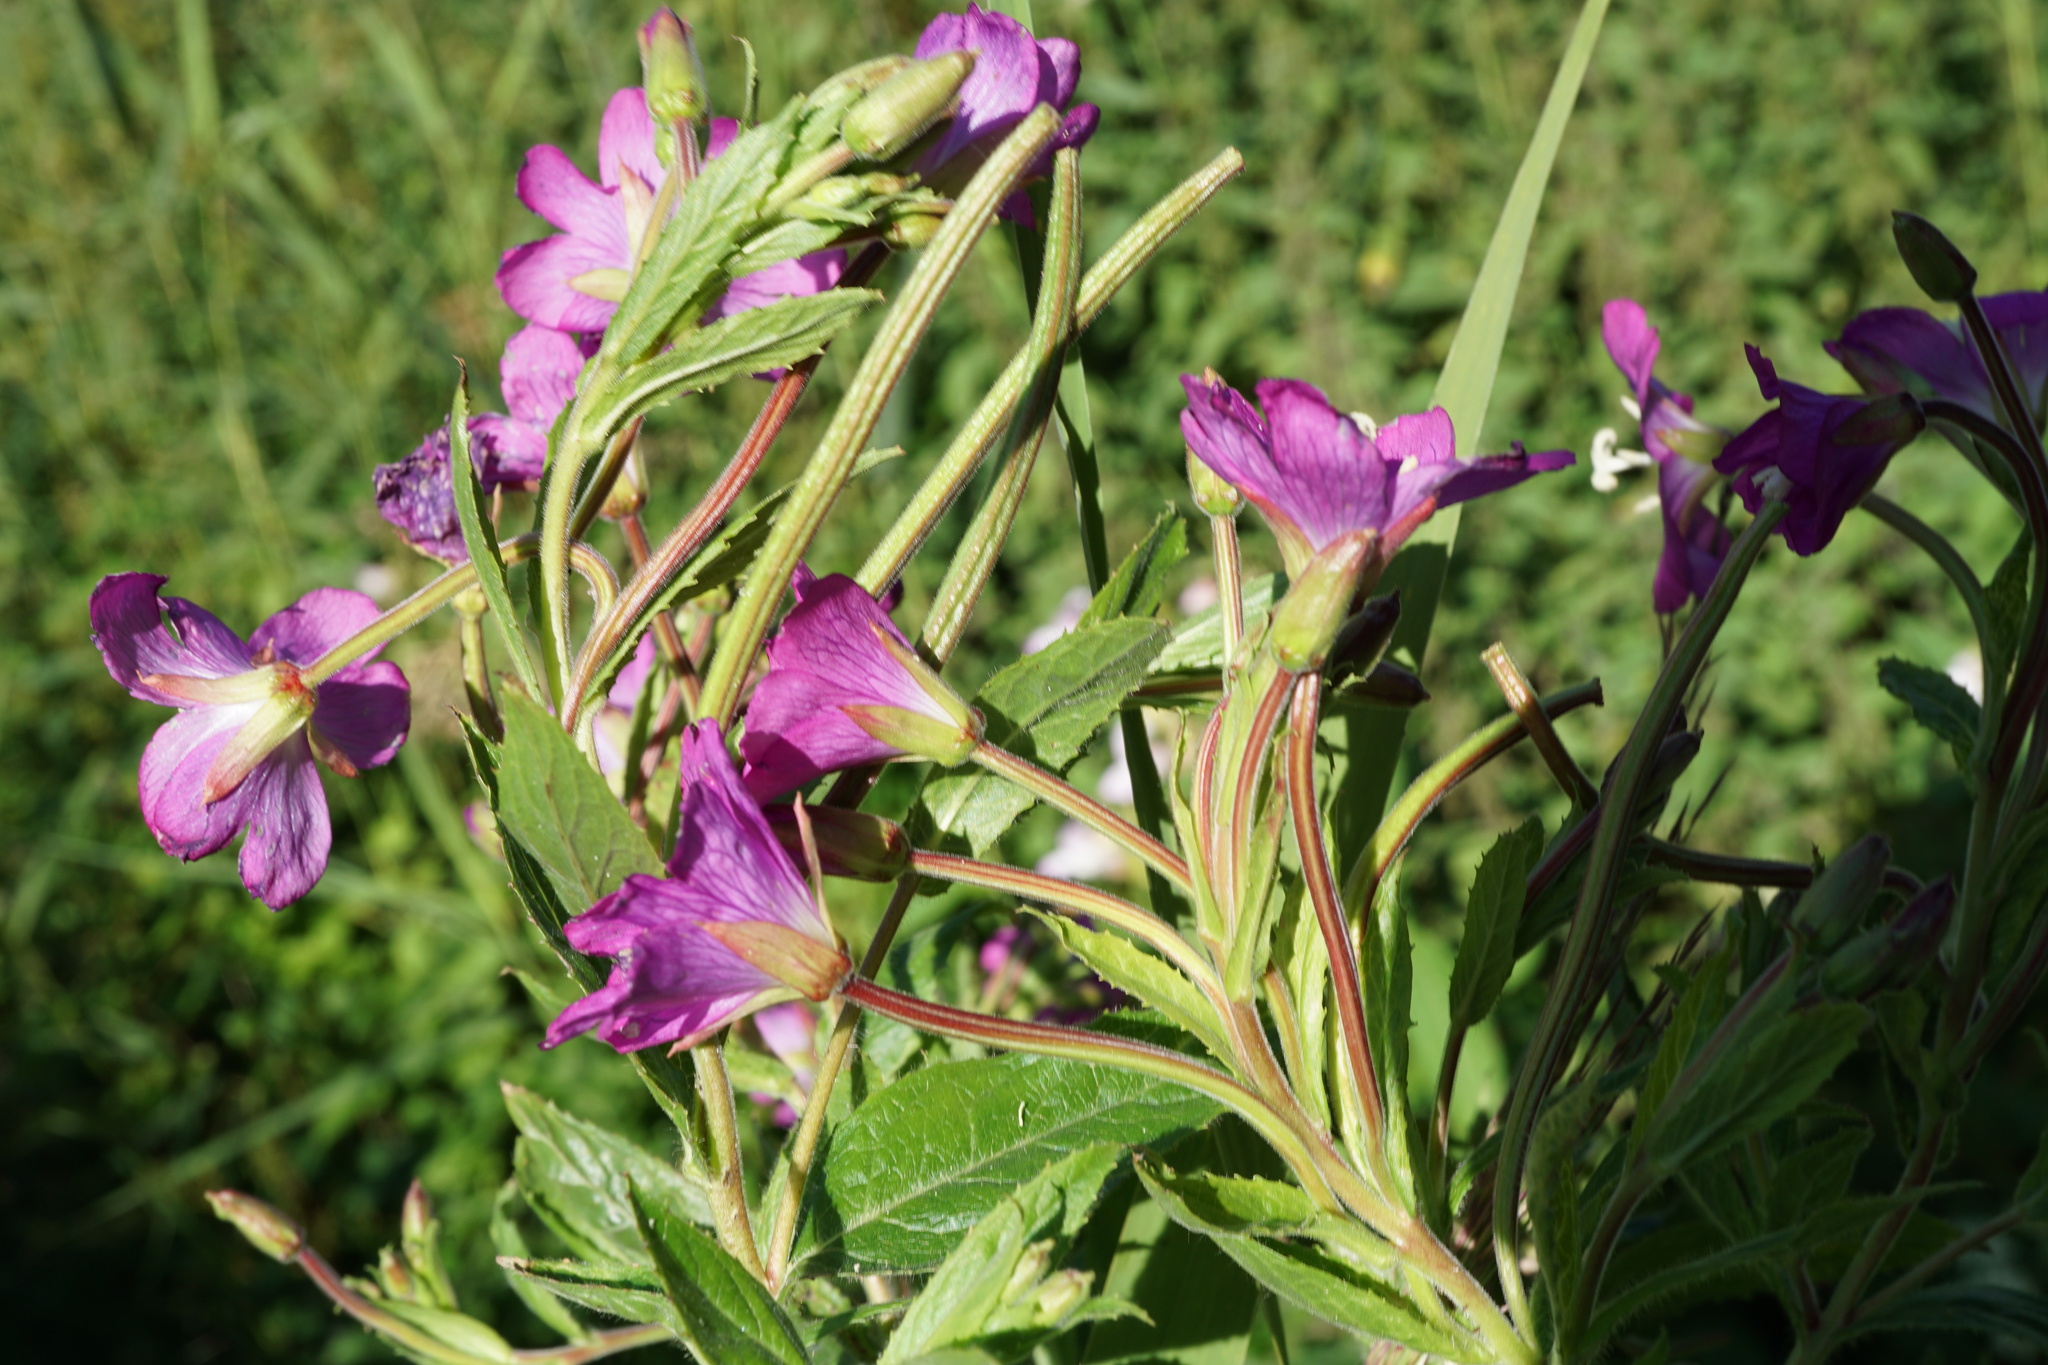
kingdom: Plantae
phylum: Tracheophyta
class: Magnoliopsida
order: Myrtales
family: Onagraceae
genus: Epilobium
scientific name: Epilobium hirsutum
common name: Great willowherb
